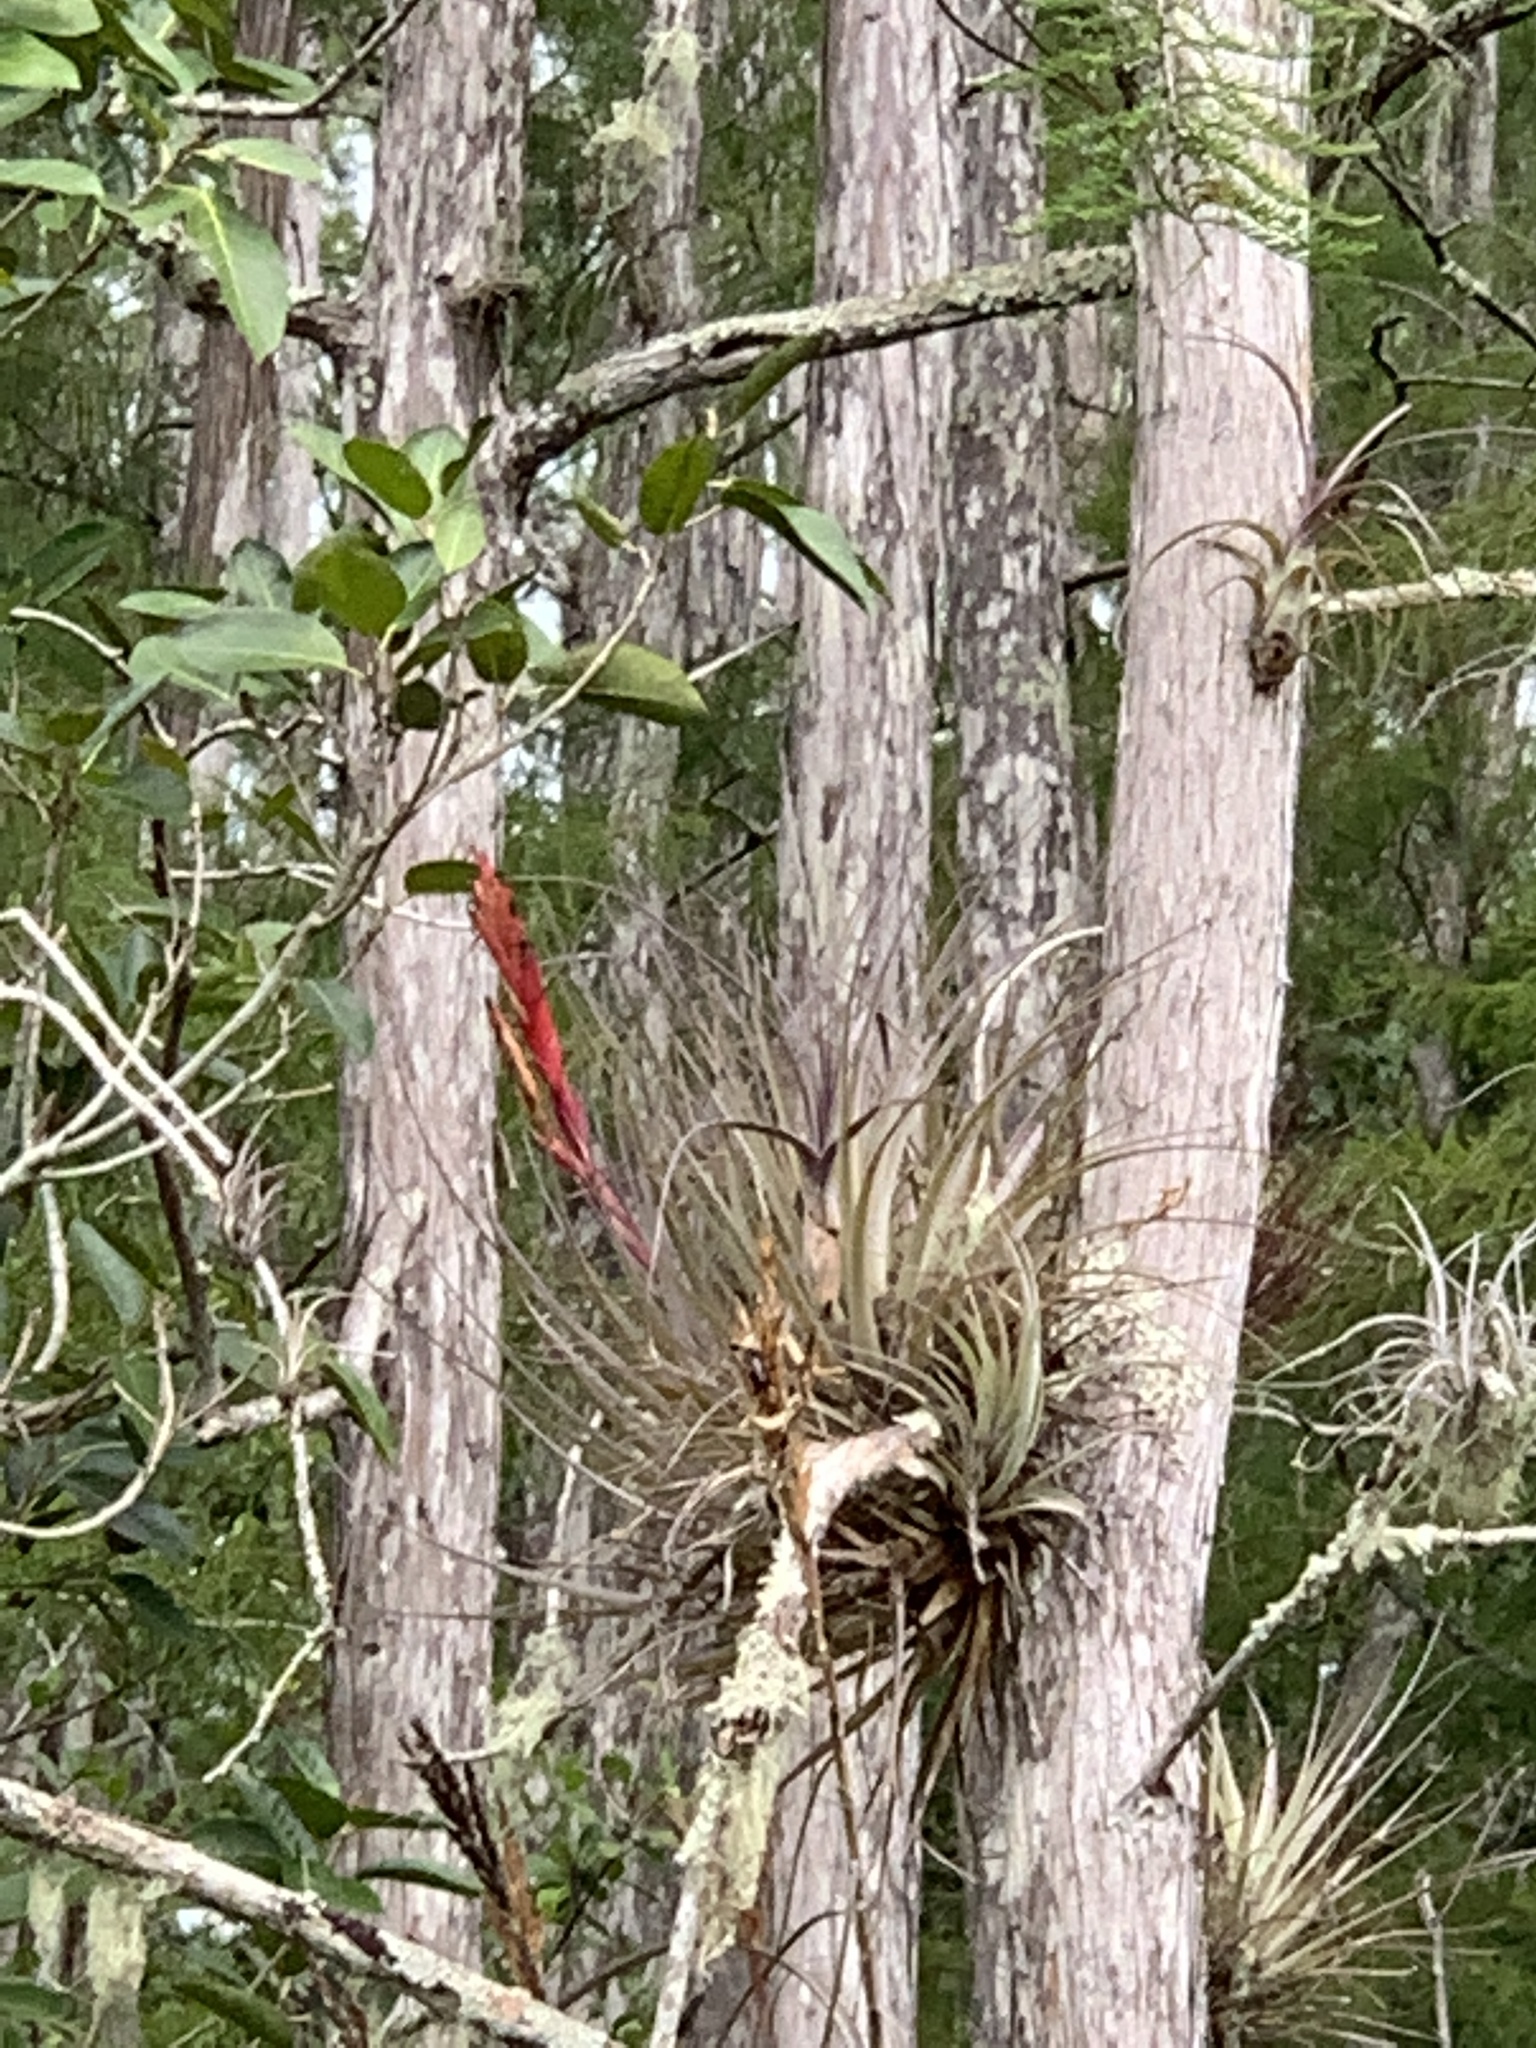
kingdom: Plantae
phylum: Tracheophyta
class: Liliopsida
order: Poales
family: Bromeliaceae
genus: Tillandsia
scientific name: Tillandsia fasciculata
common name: Giant airplant
